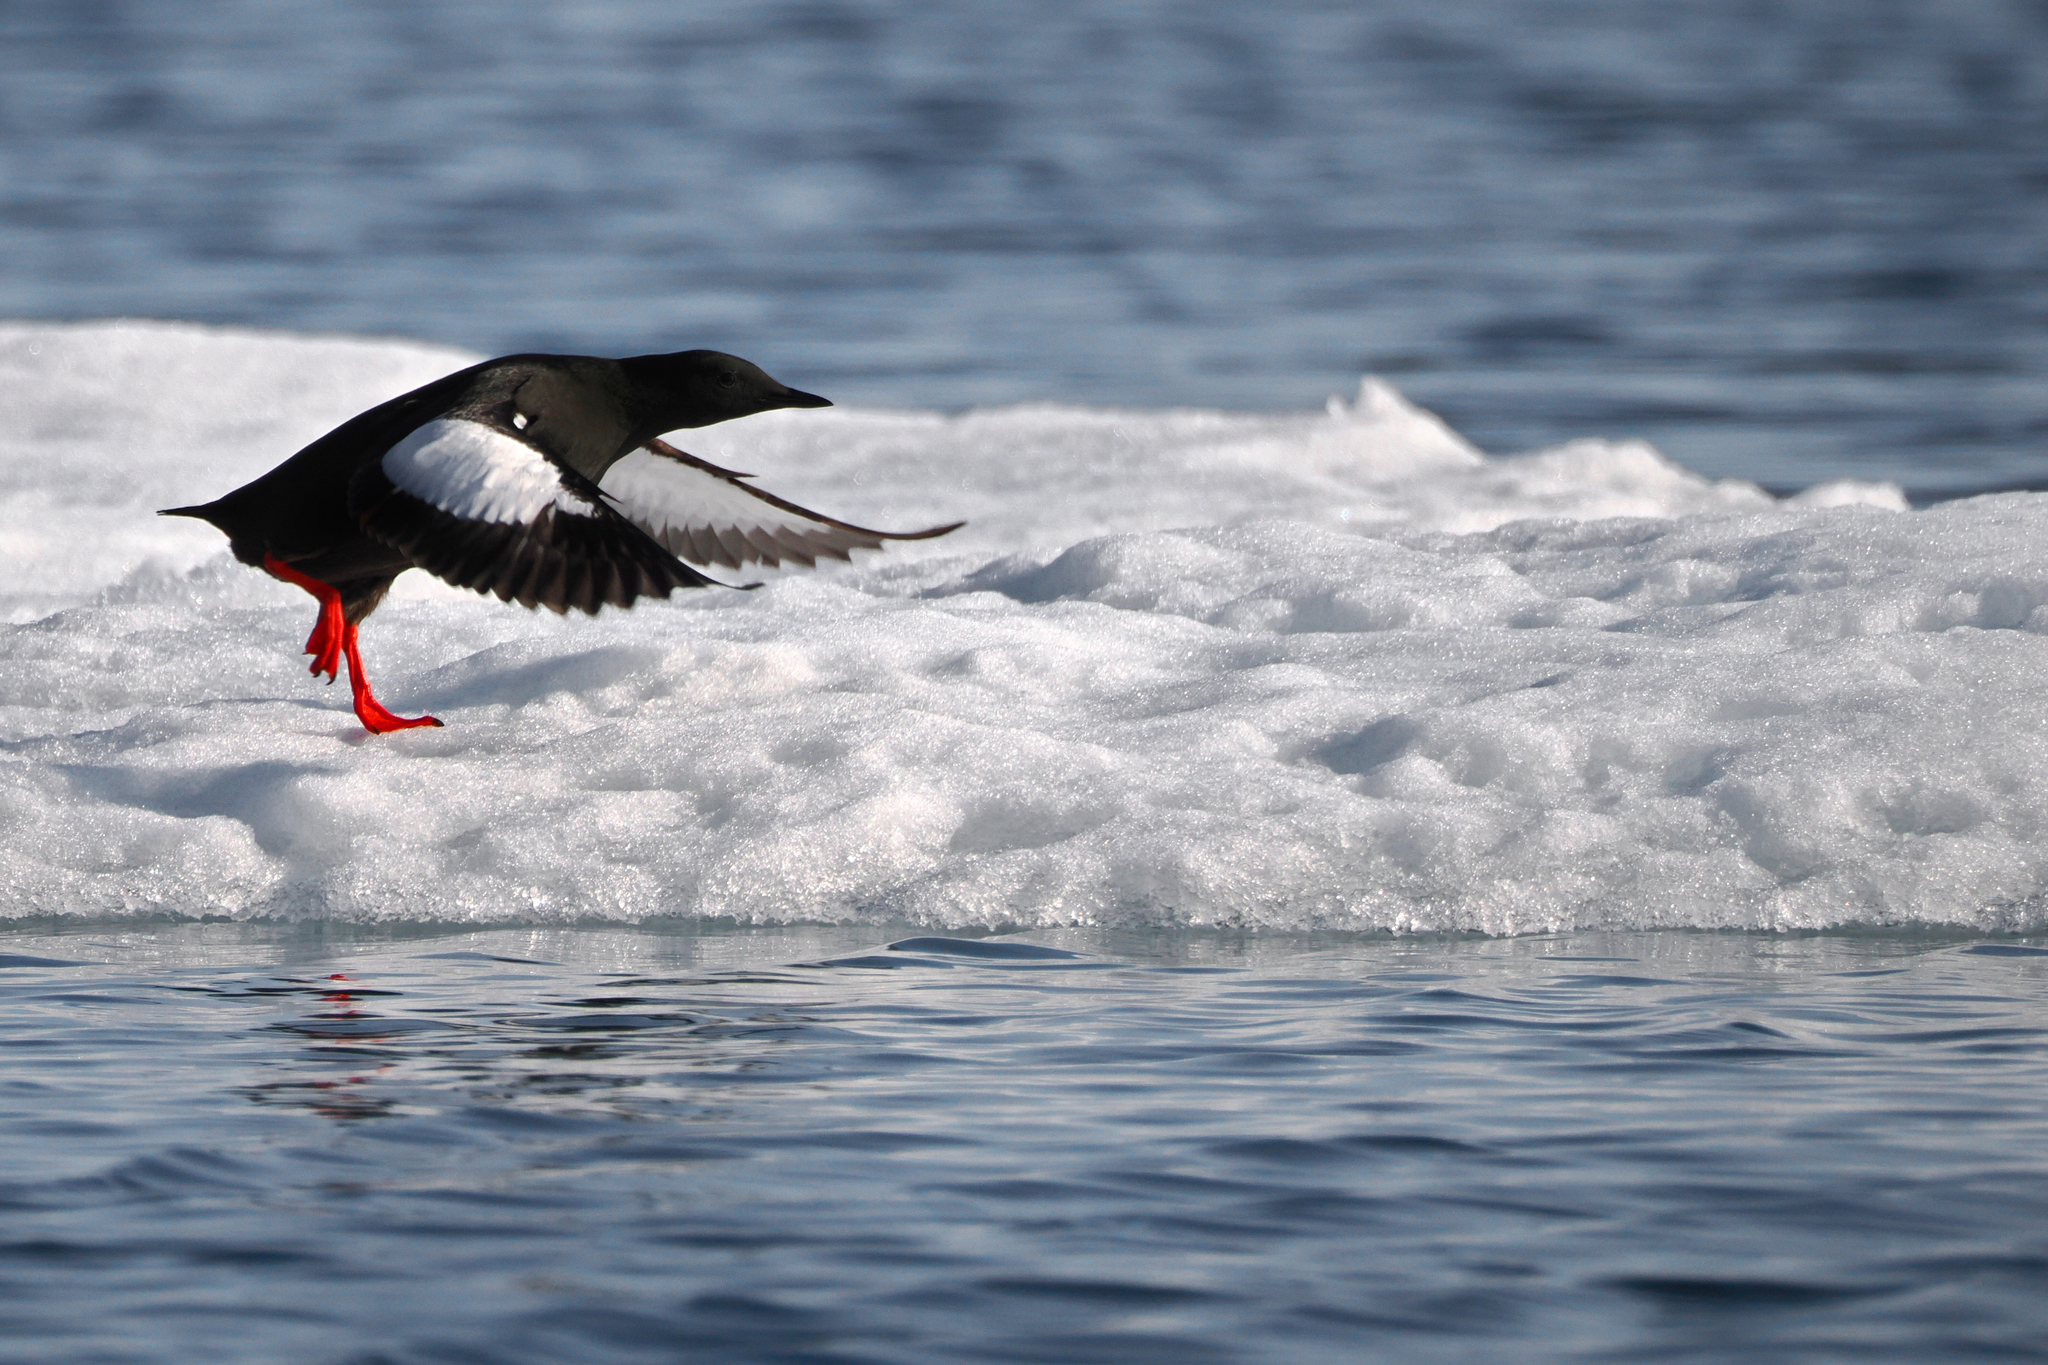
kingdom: Animalia
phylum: Chordata
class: Aves
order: Charadriiformes
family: Alcidae
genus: Cepphus
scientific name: Cepphus grylle
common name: Black guillemot
